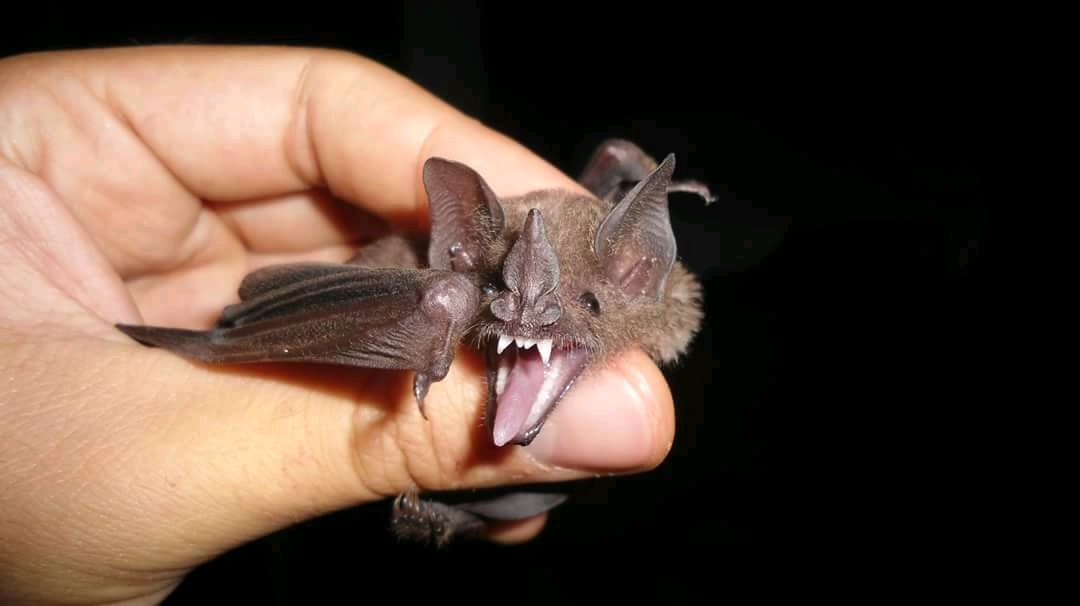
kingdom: Animalia
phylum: Chordata
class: Mammalia
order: Chiroptera
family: Phyllostomidae
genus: Carollia
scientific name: Carollia perspicillata
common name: Seba's short-tailed bat
